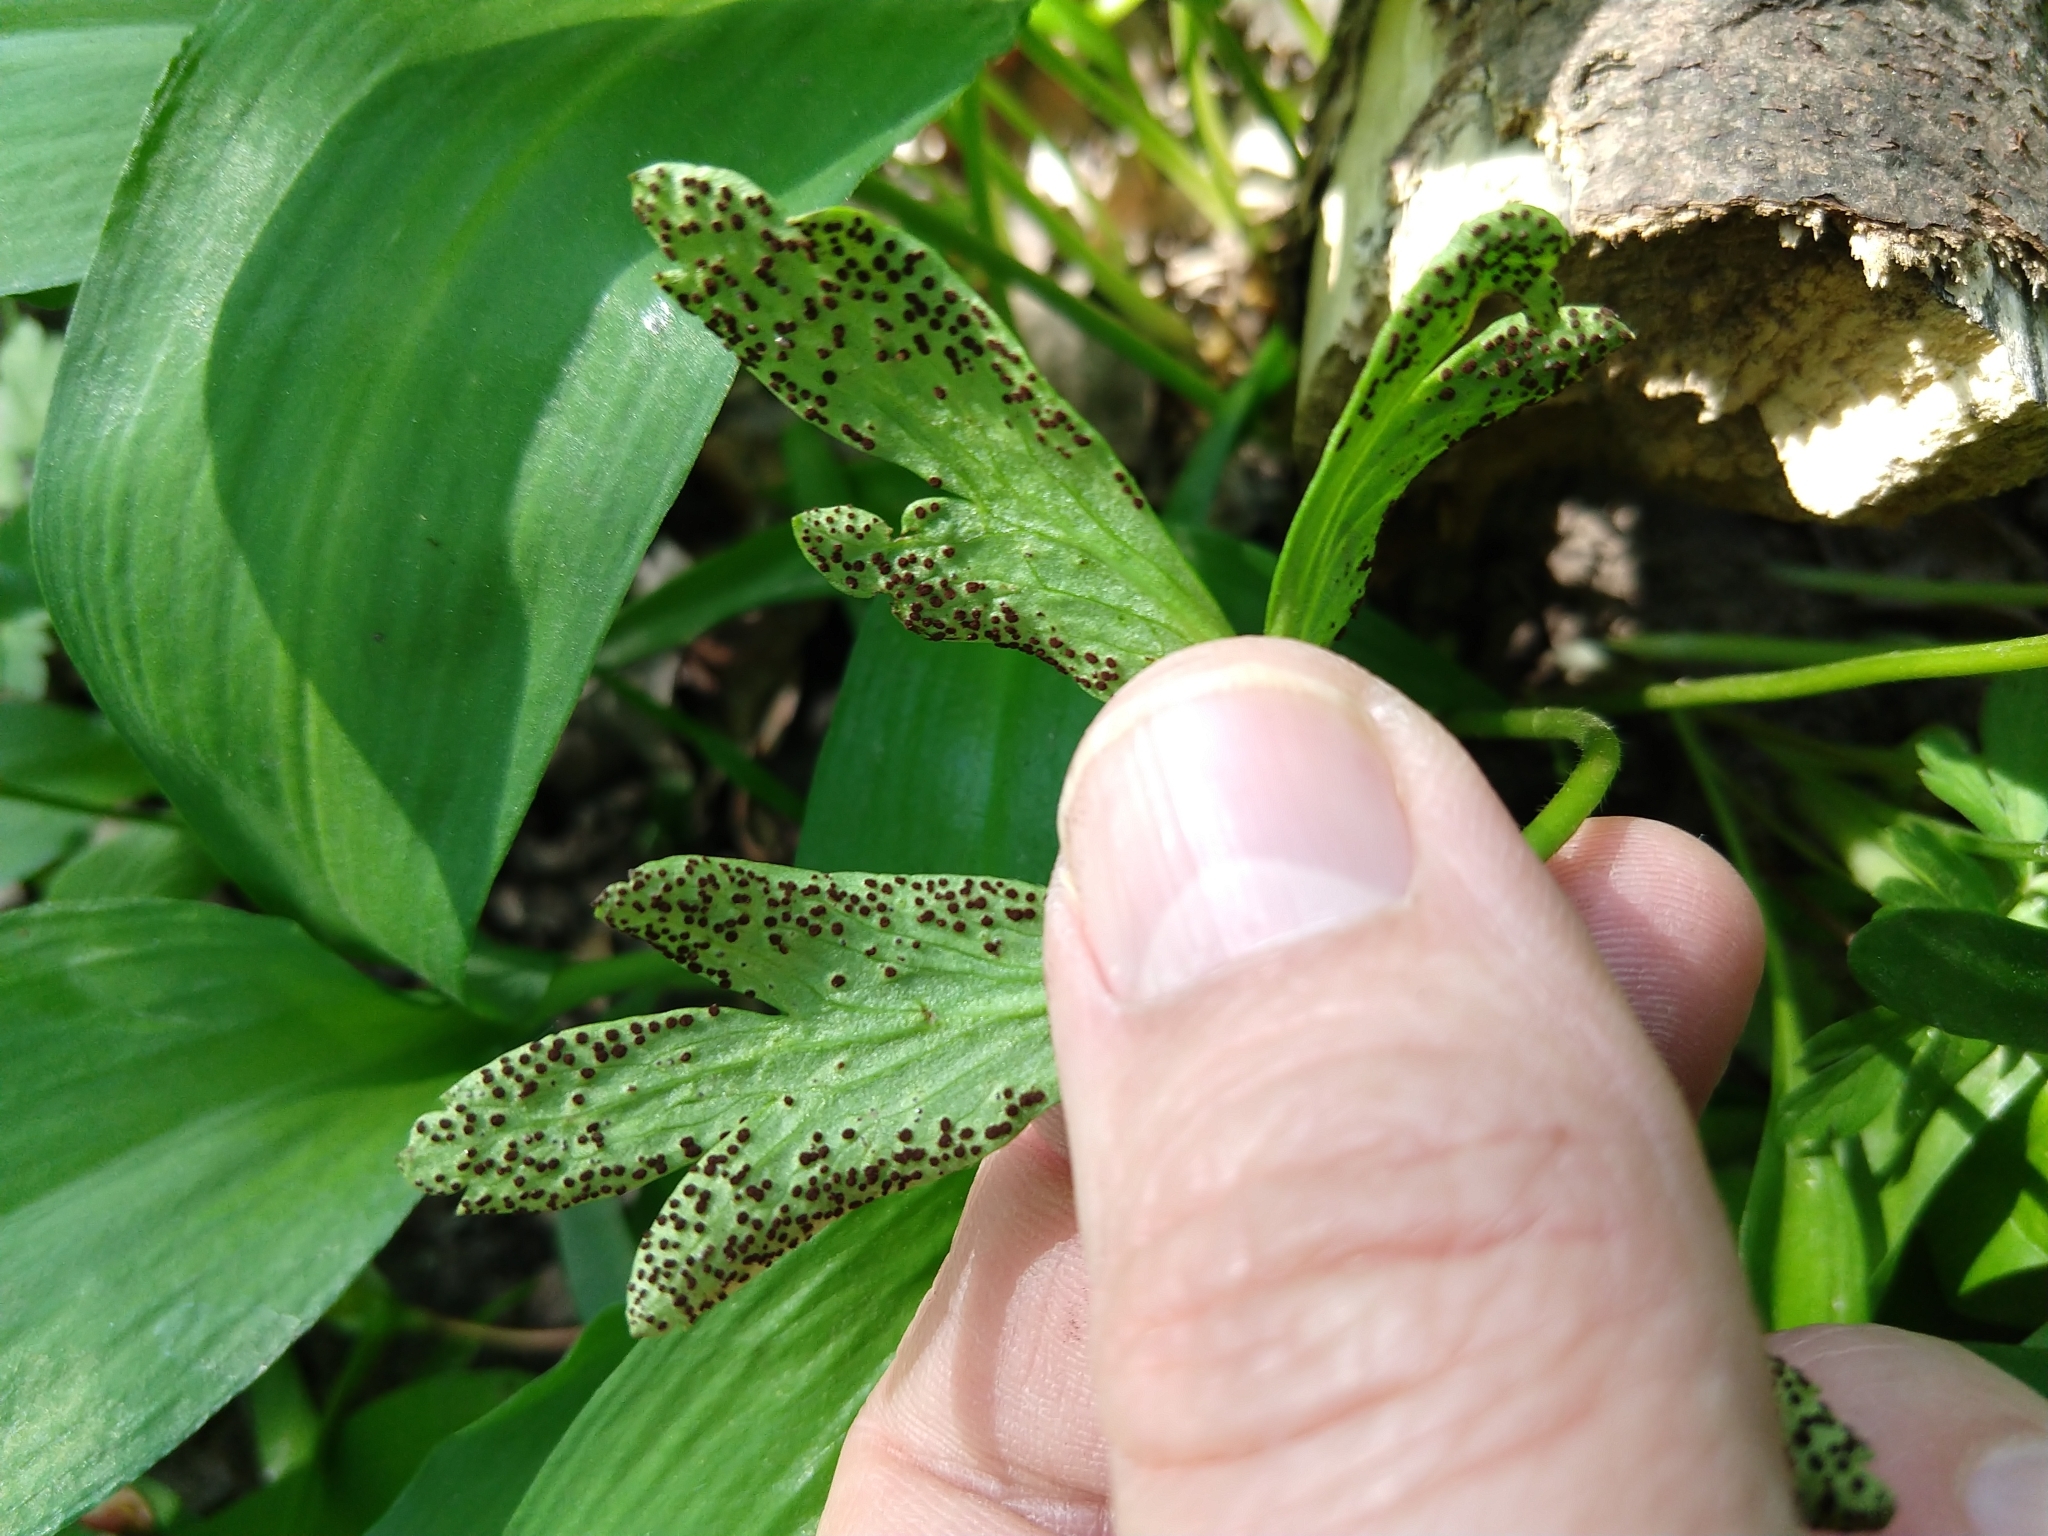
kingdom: Fungi
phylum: Basidiomycota
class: Pucciniomycetes
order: Pucciniales
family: Tranzscheliaceae
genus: Tranzschelia
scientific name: Tranzschelia anemones
